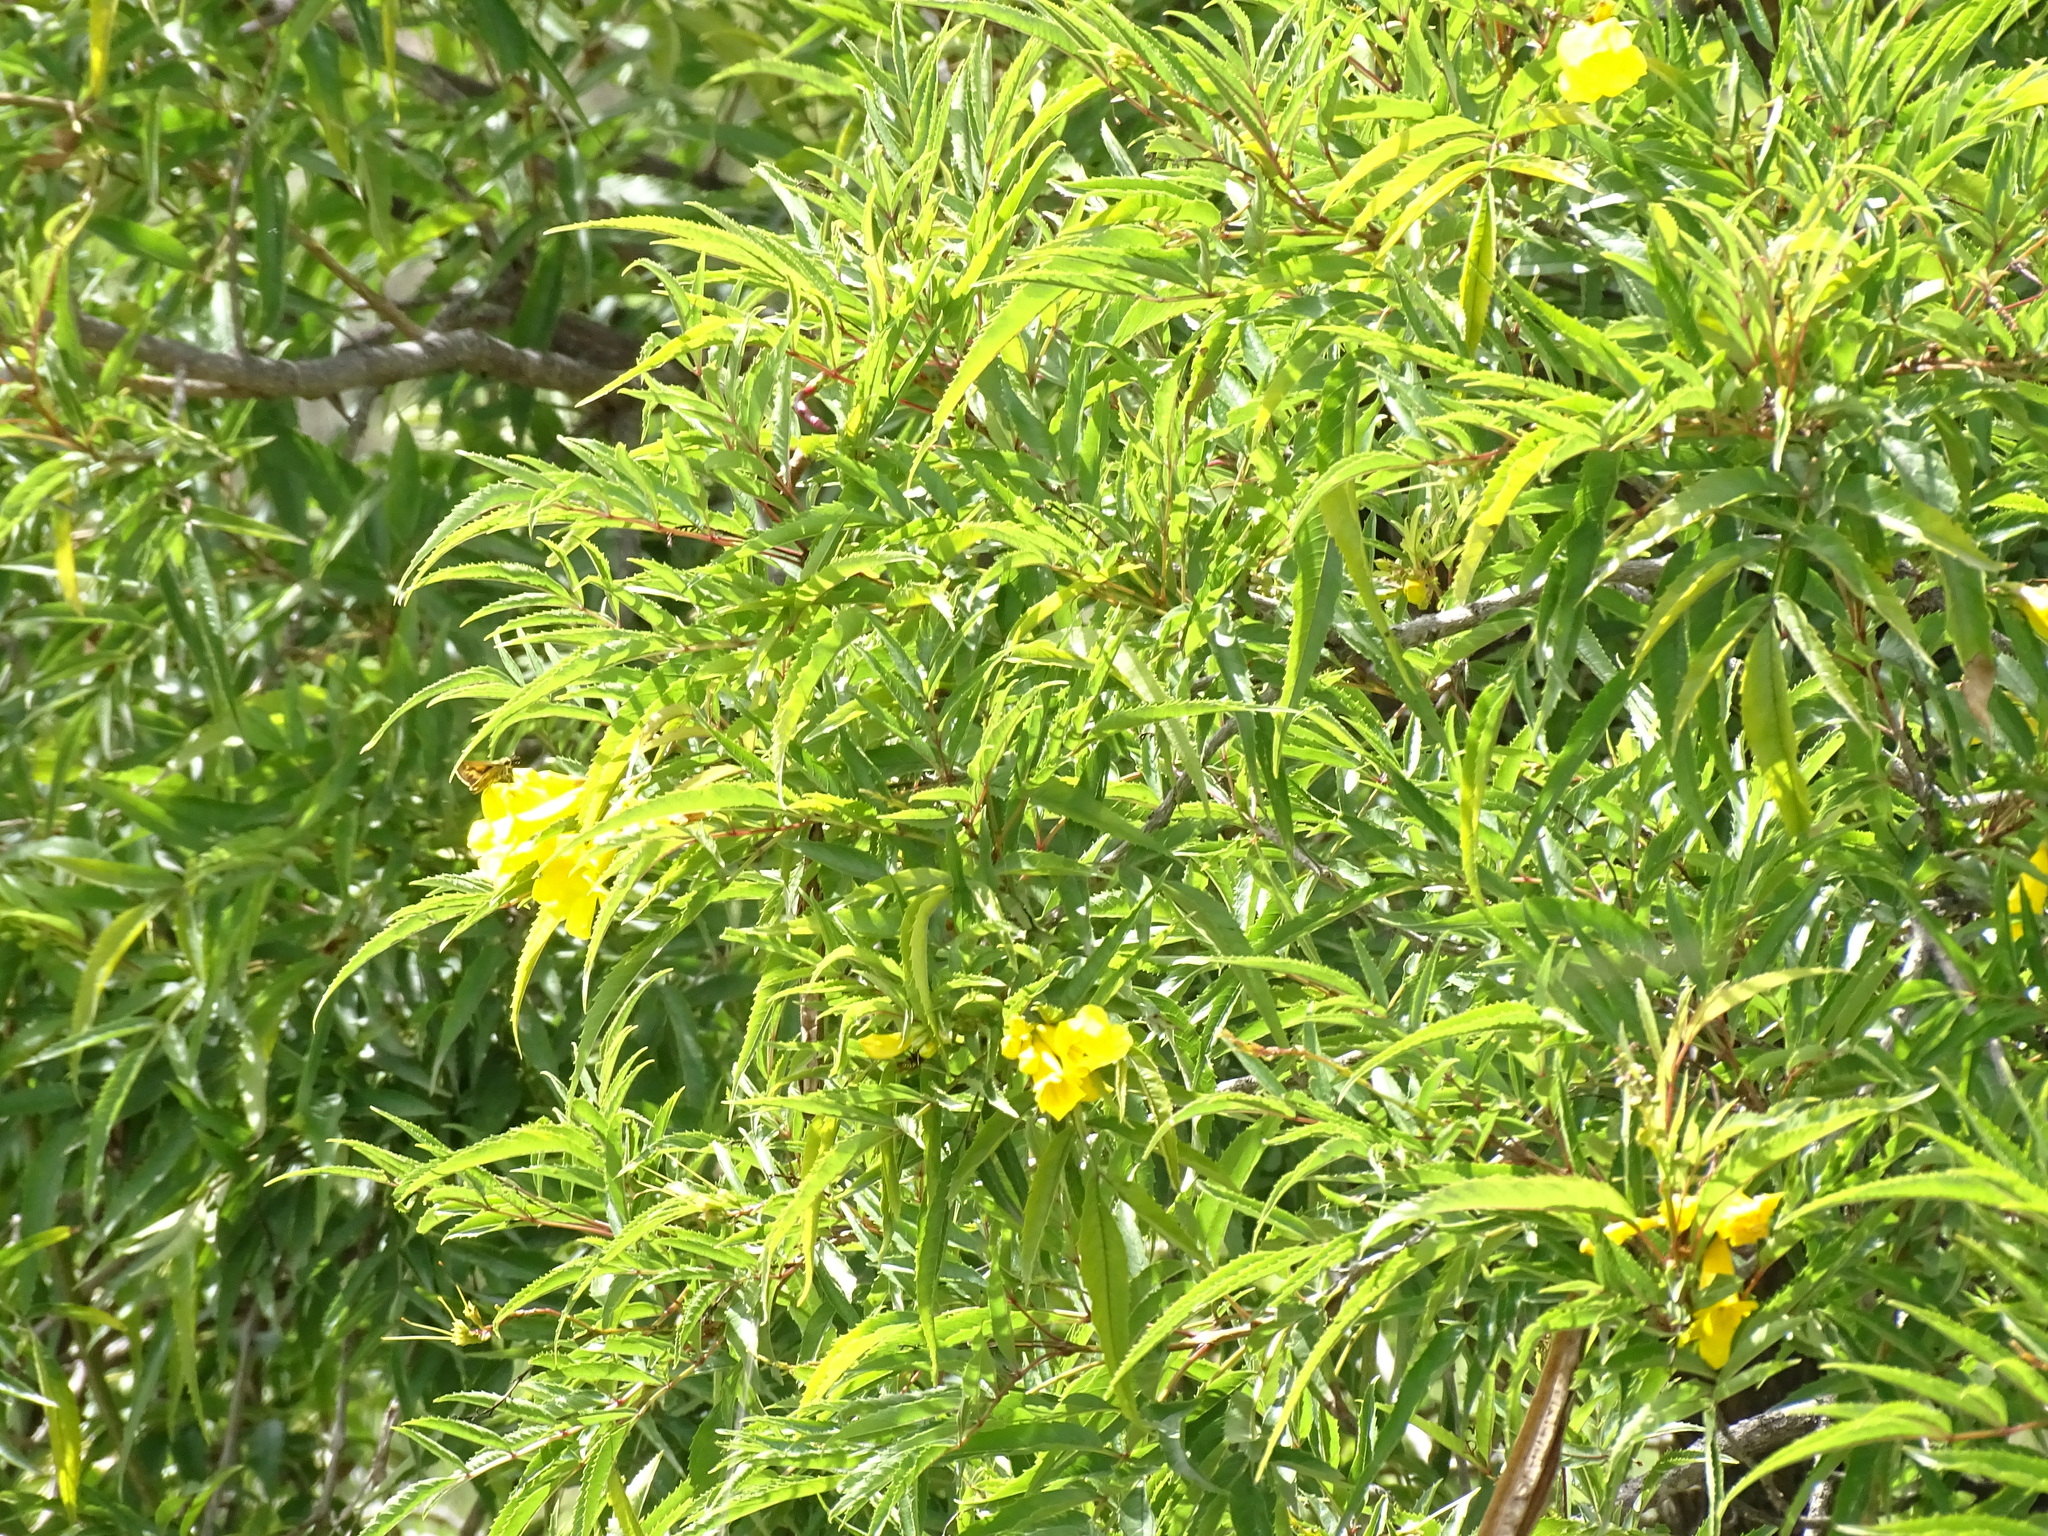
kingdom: Plantae
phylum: Tracheophyta
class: Magnoliopsida
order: Lamiales
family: Bignoniaceae
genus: Tecoma
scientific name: Tecoma stans
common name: Yellow trumpetbush
